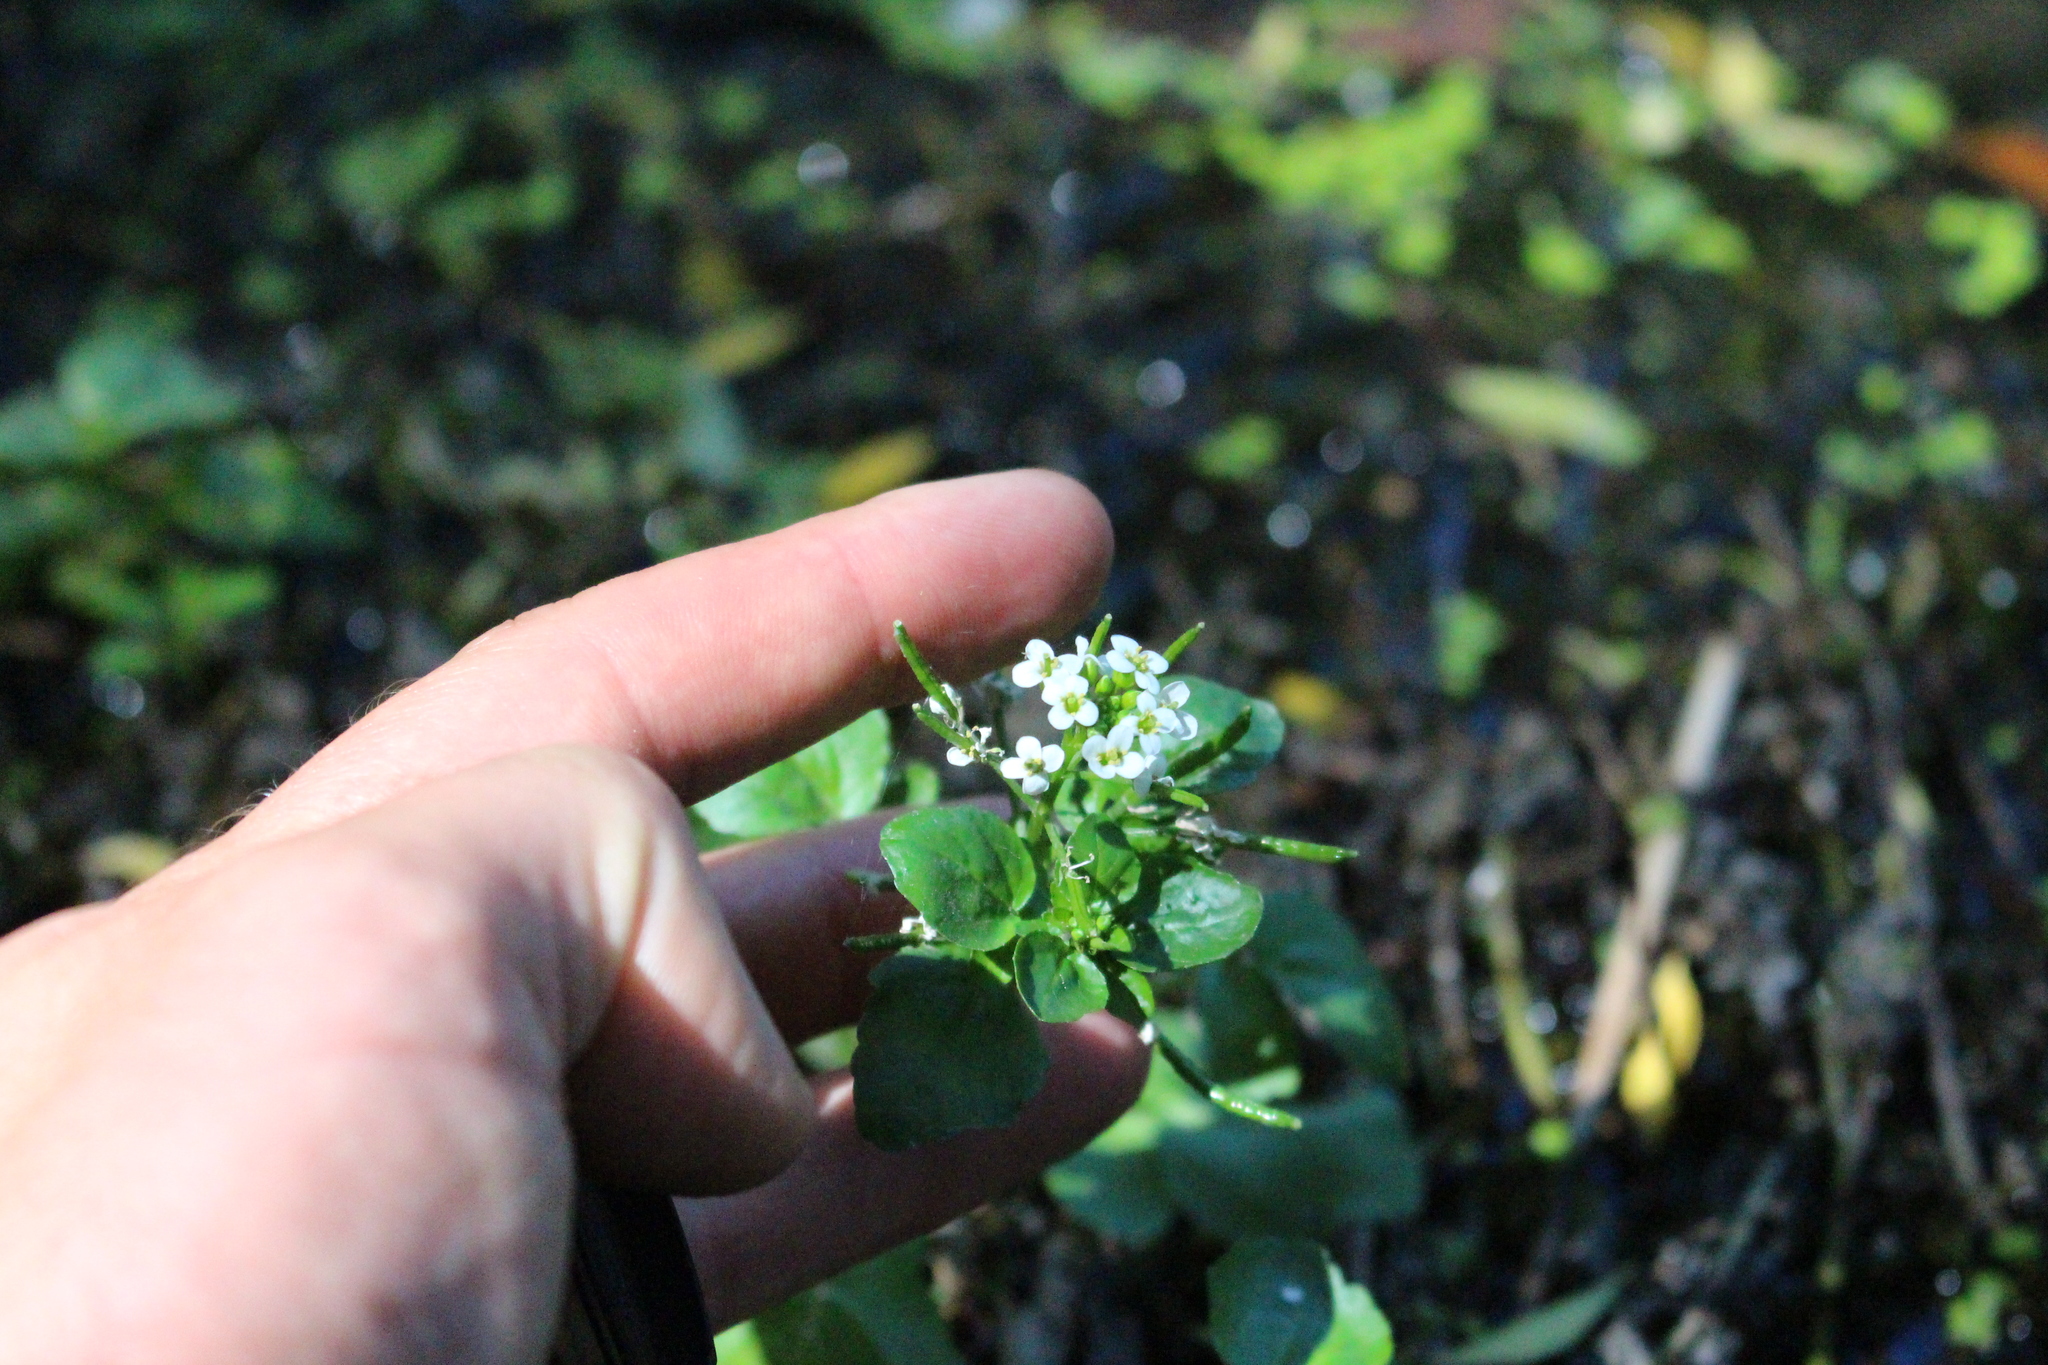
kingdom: Plantae
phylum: Tracheophyta
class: Magnoliopsida
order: Brassicales
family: Brassicaceae
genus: Nasturtium
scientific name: Nasturtium officinale
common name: Watercress
